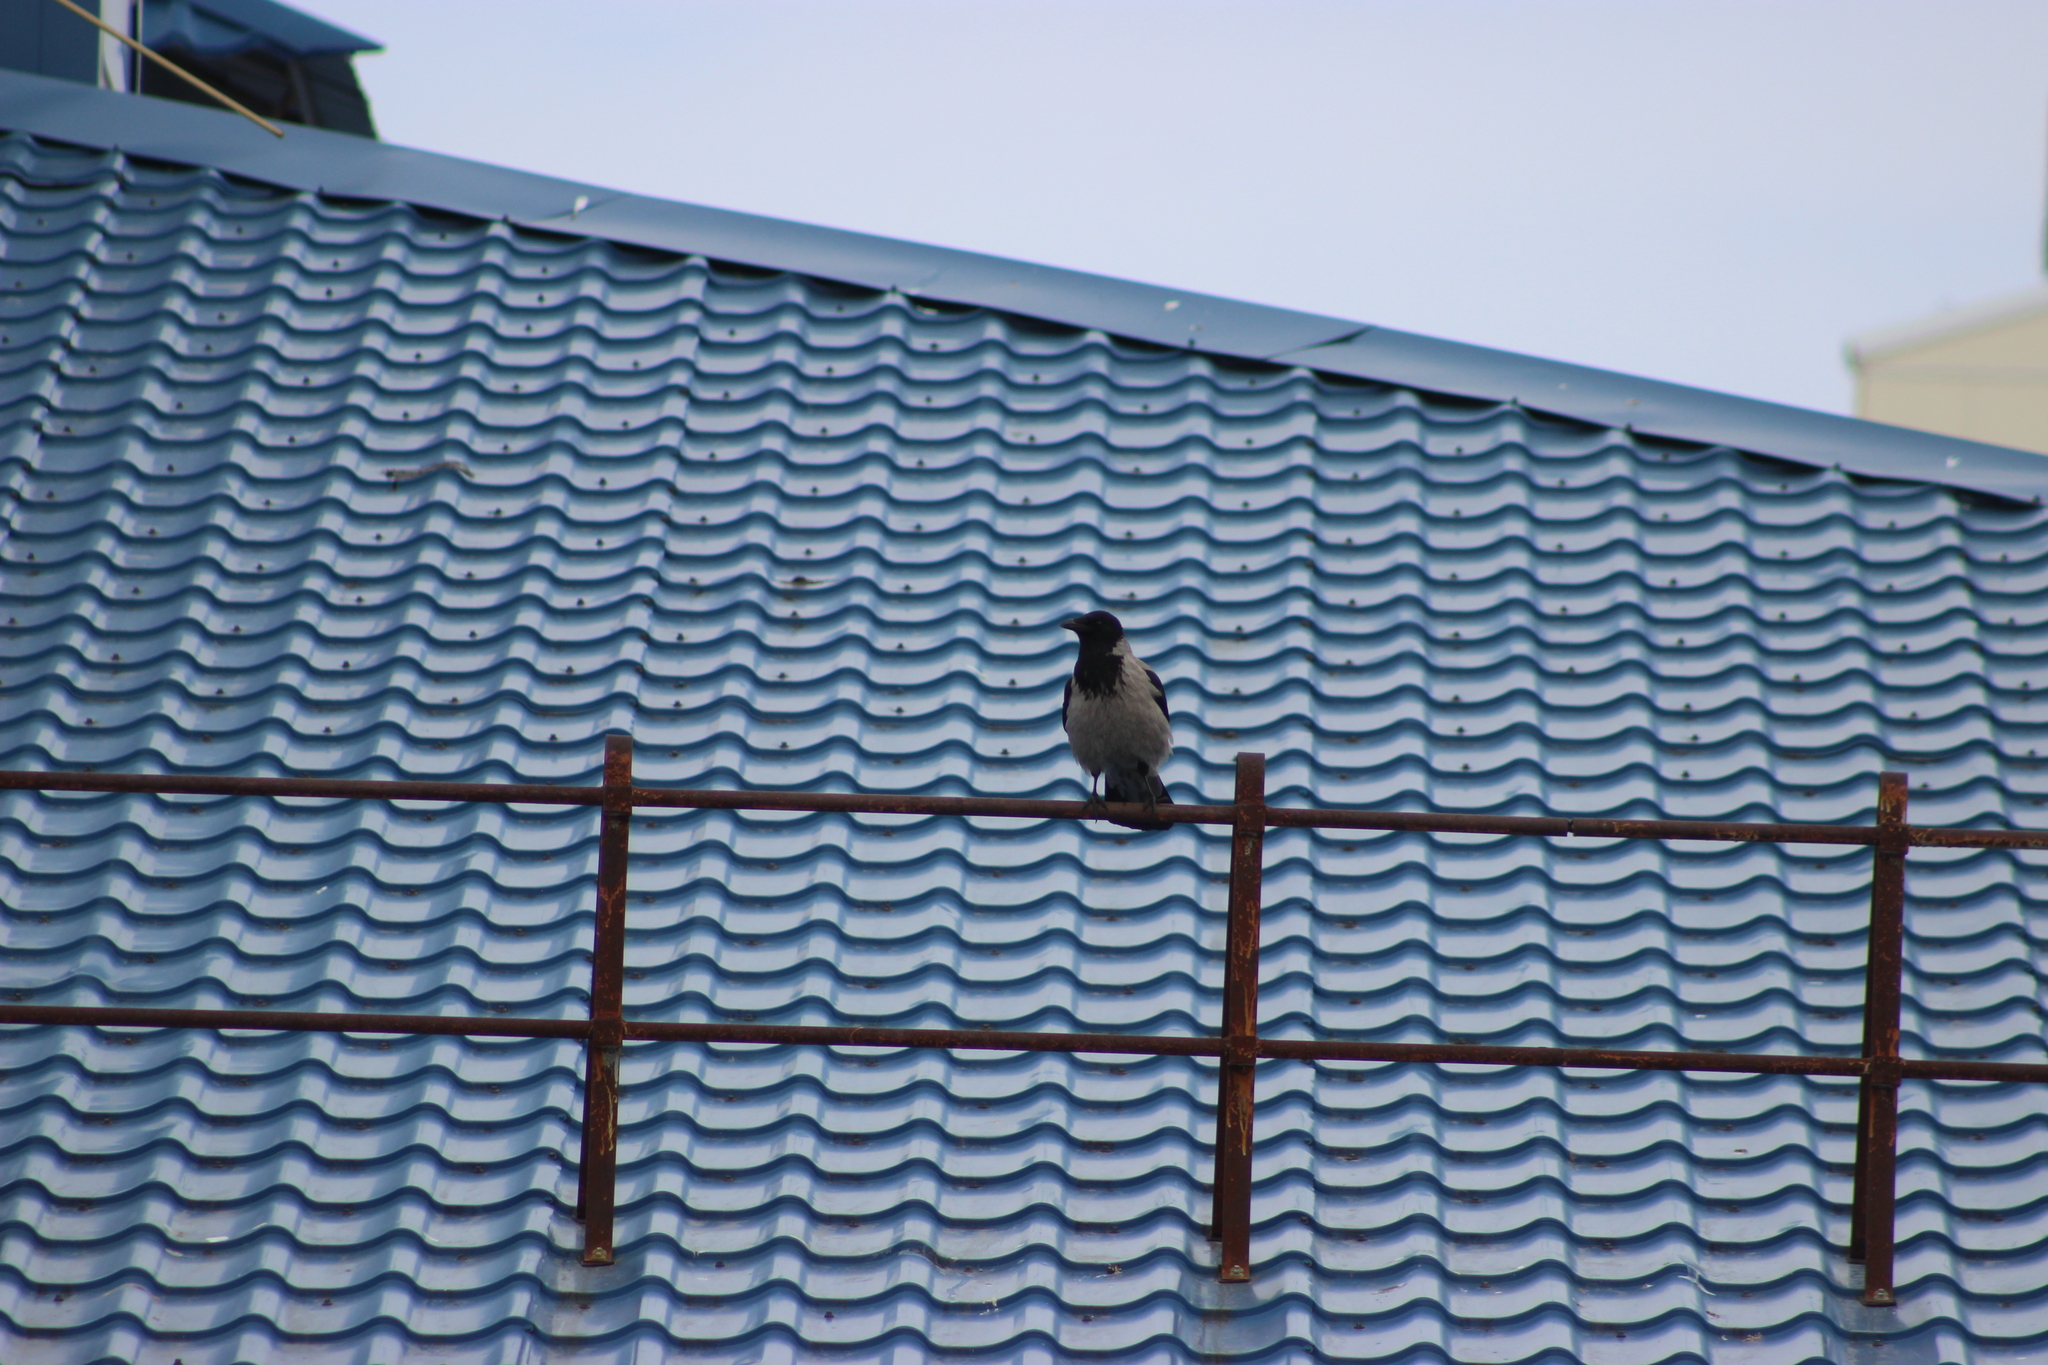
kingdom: Animalia
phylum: Chordata
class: Aves
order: Passeriformes
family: Corvidae
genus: Corvus
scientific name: Corvus cornix
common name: Hooded crow
